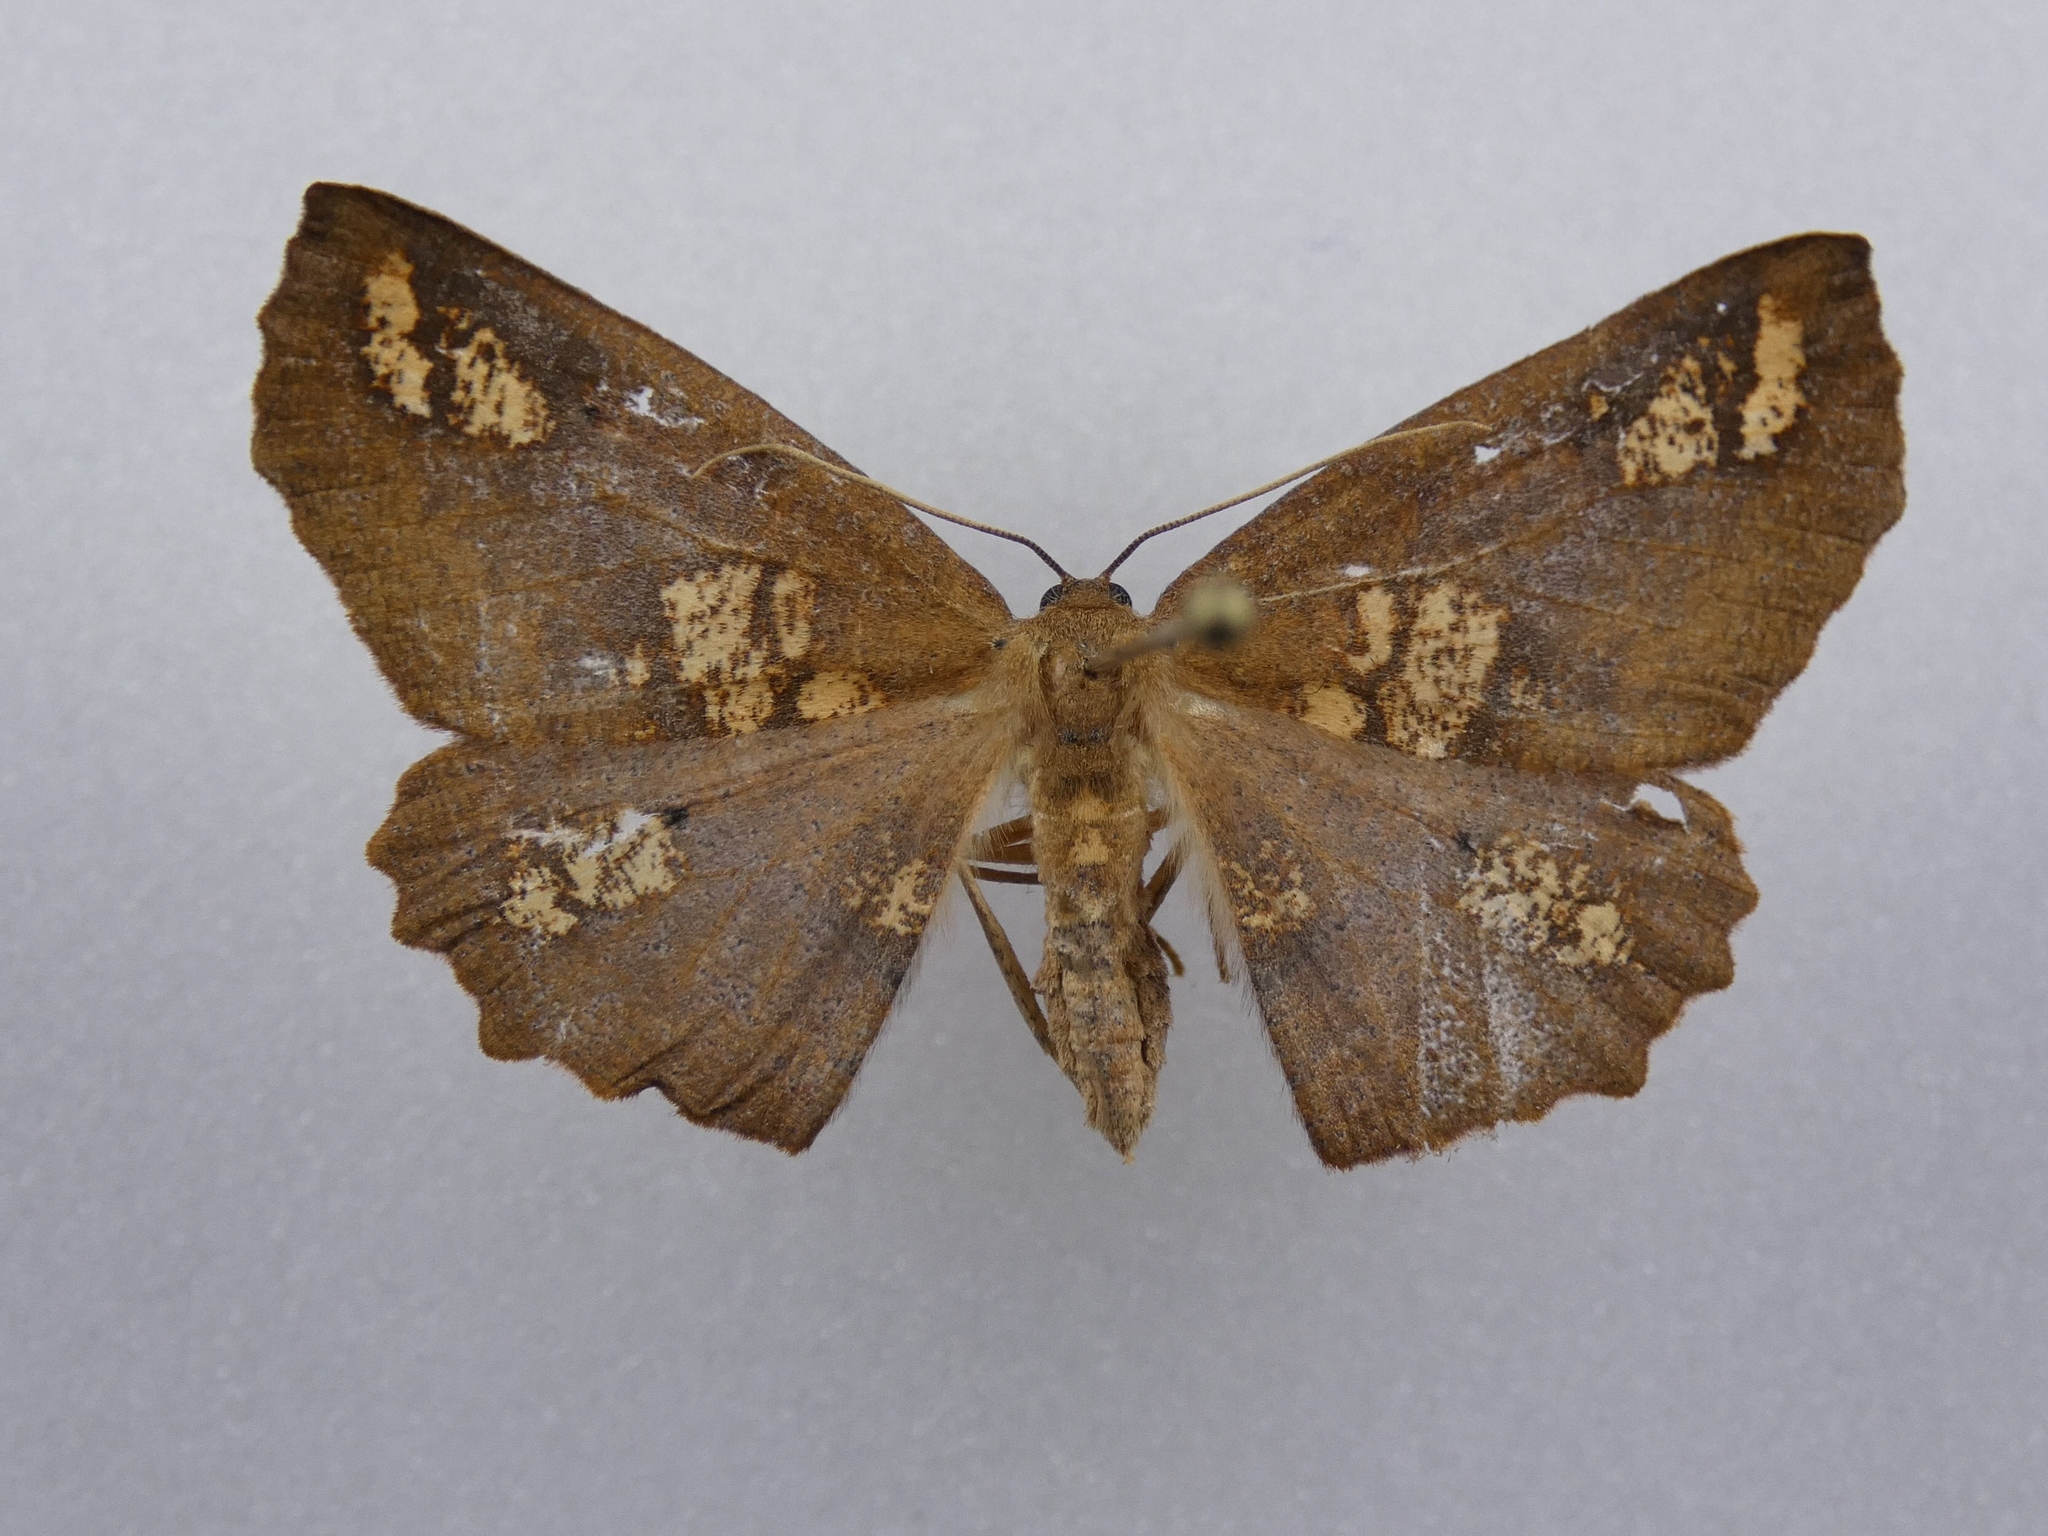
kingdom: Animalia
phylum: Arthropoda
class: Insecta
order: Lepidoptera
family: Geometridae
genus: Xyridacma
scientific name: Xyridacma ustaria
